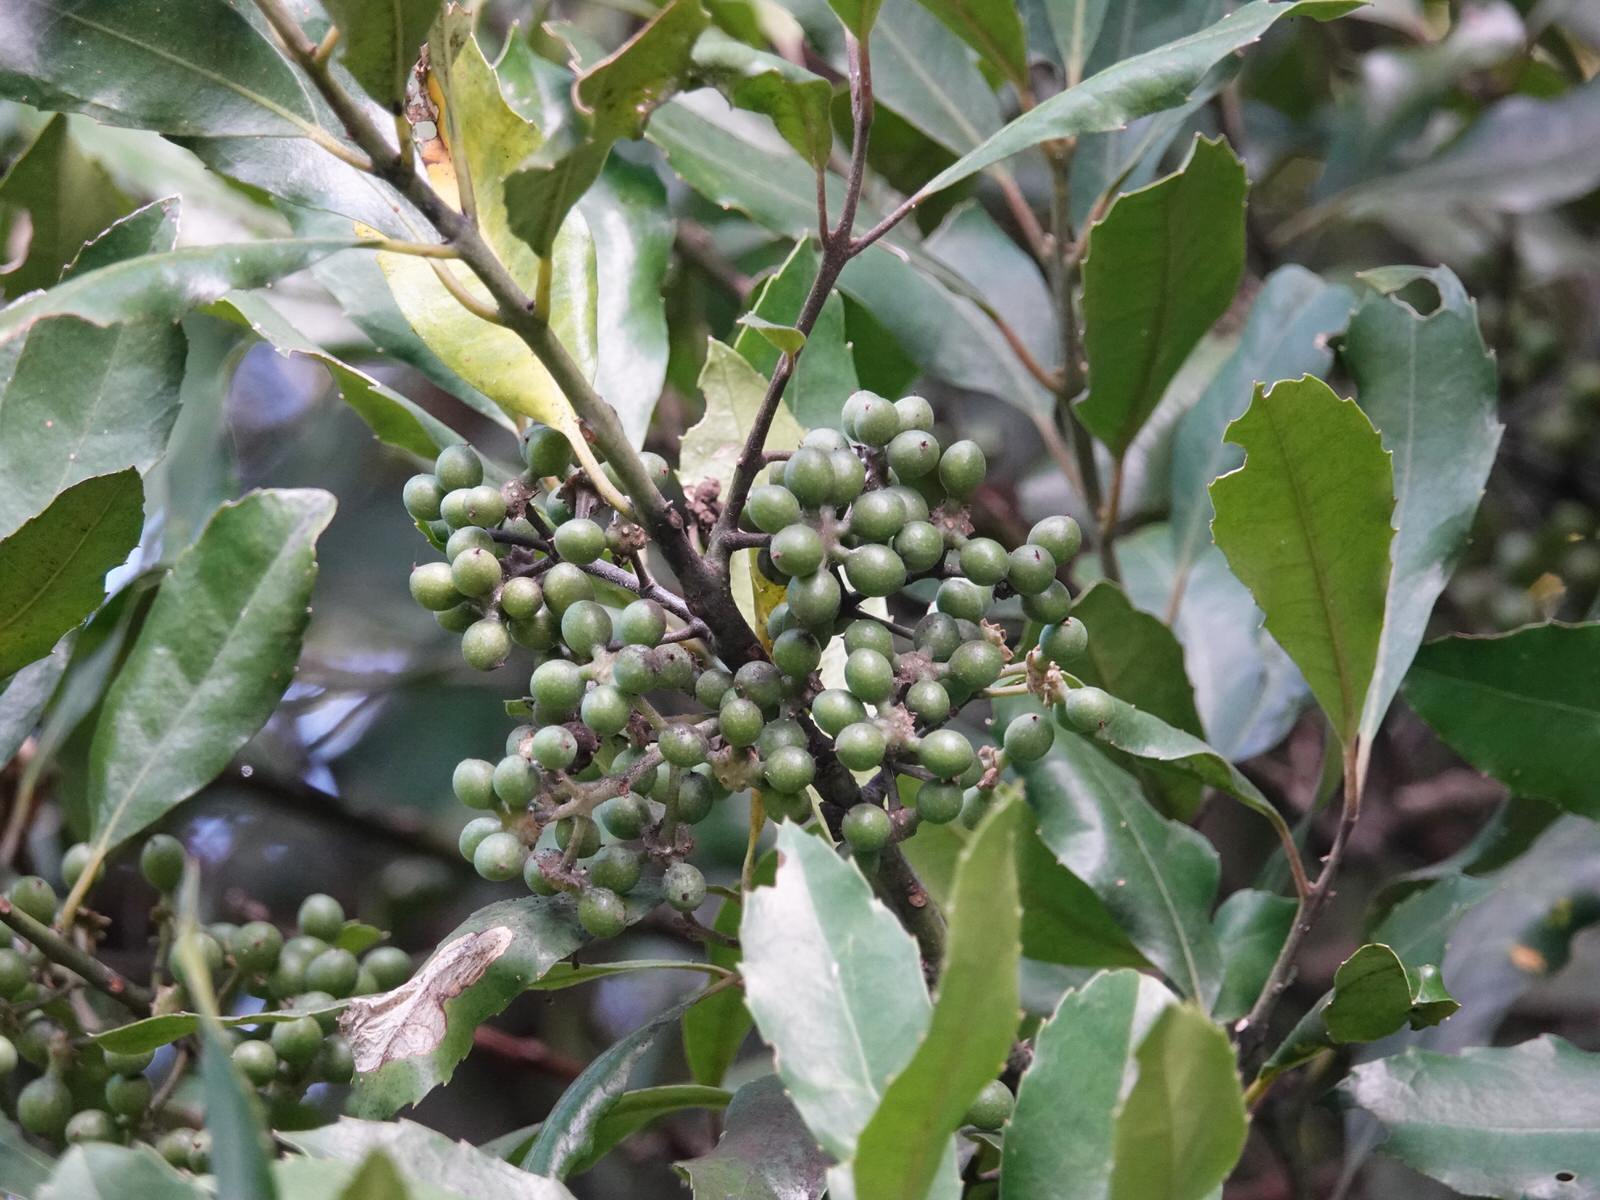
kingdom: Plantae
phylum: Tracheophyta
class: Magnoliopsida
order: Laurales
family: Monimiaceae
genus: Hedycarya
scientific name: Hedycarya arborea
